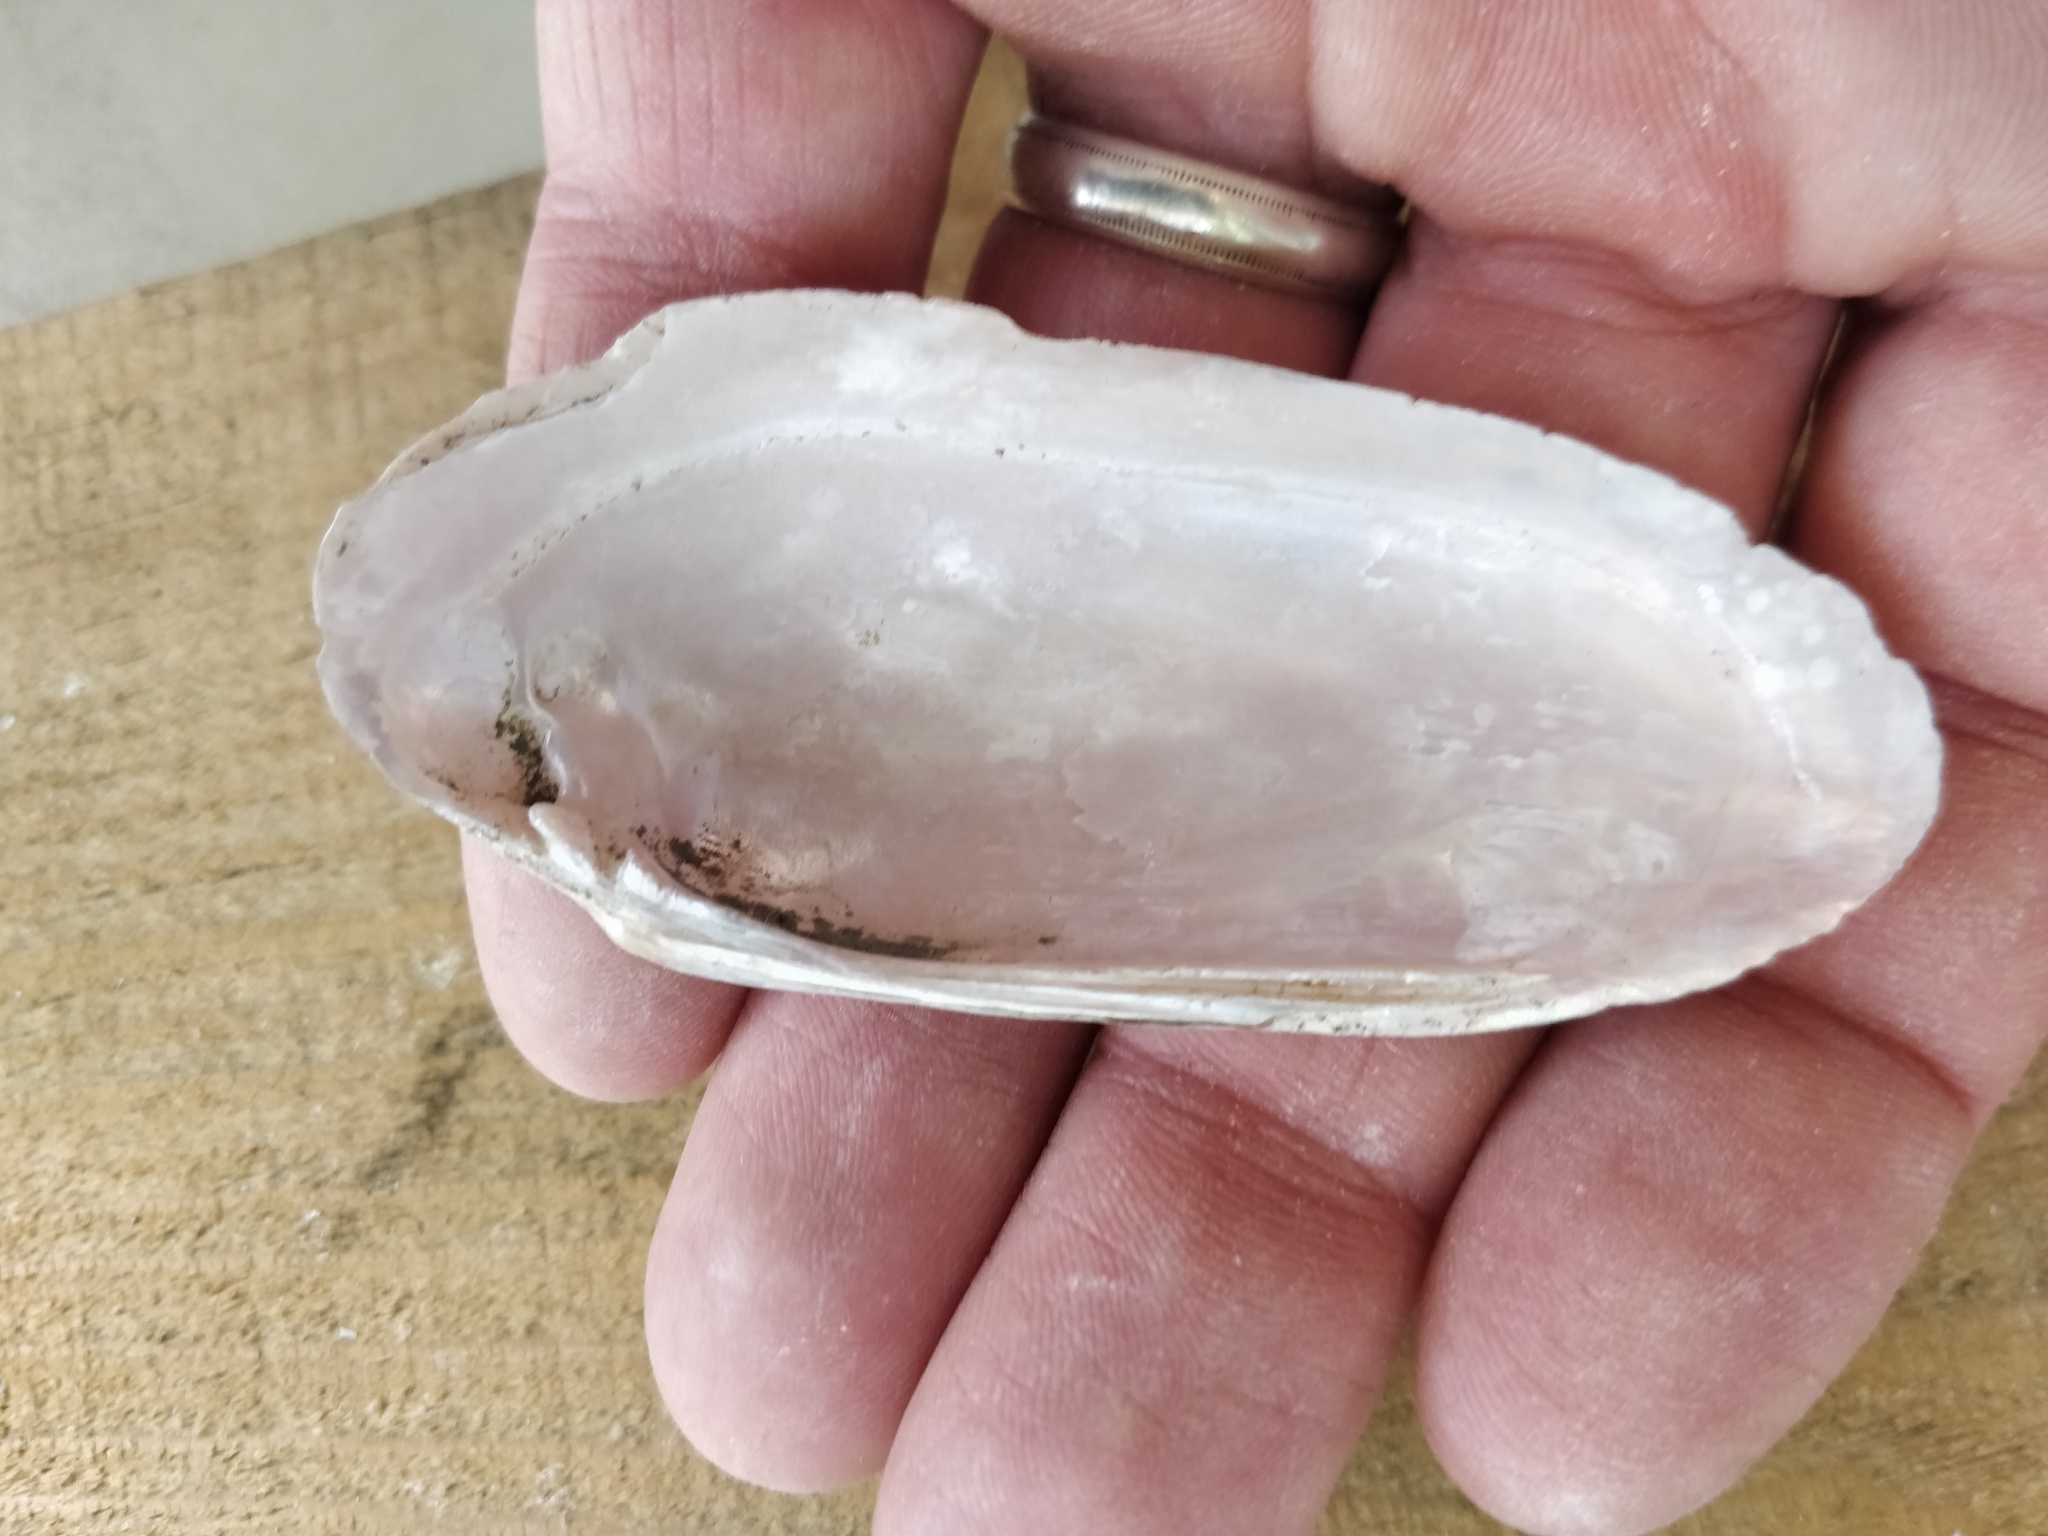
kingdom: Animalia
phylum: Mollusca
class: Bivalvia
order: Unionida
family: Unionidae
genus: Ligumia
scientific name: Ligumia recta
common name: Black sandshell
